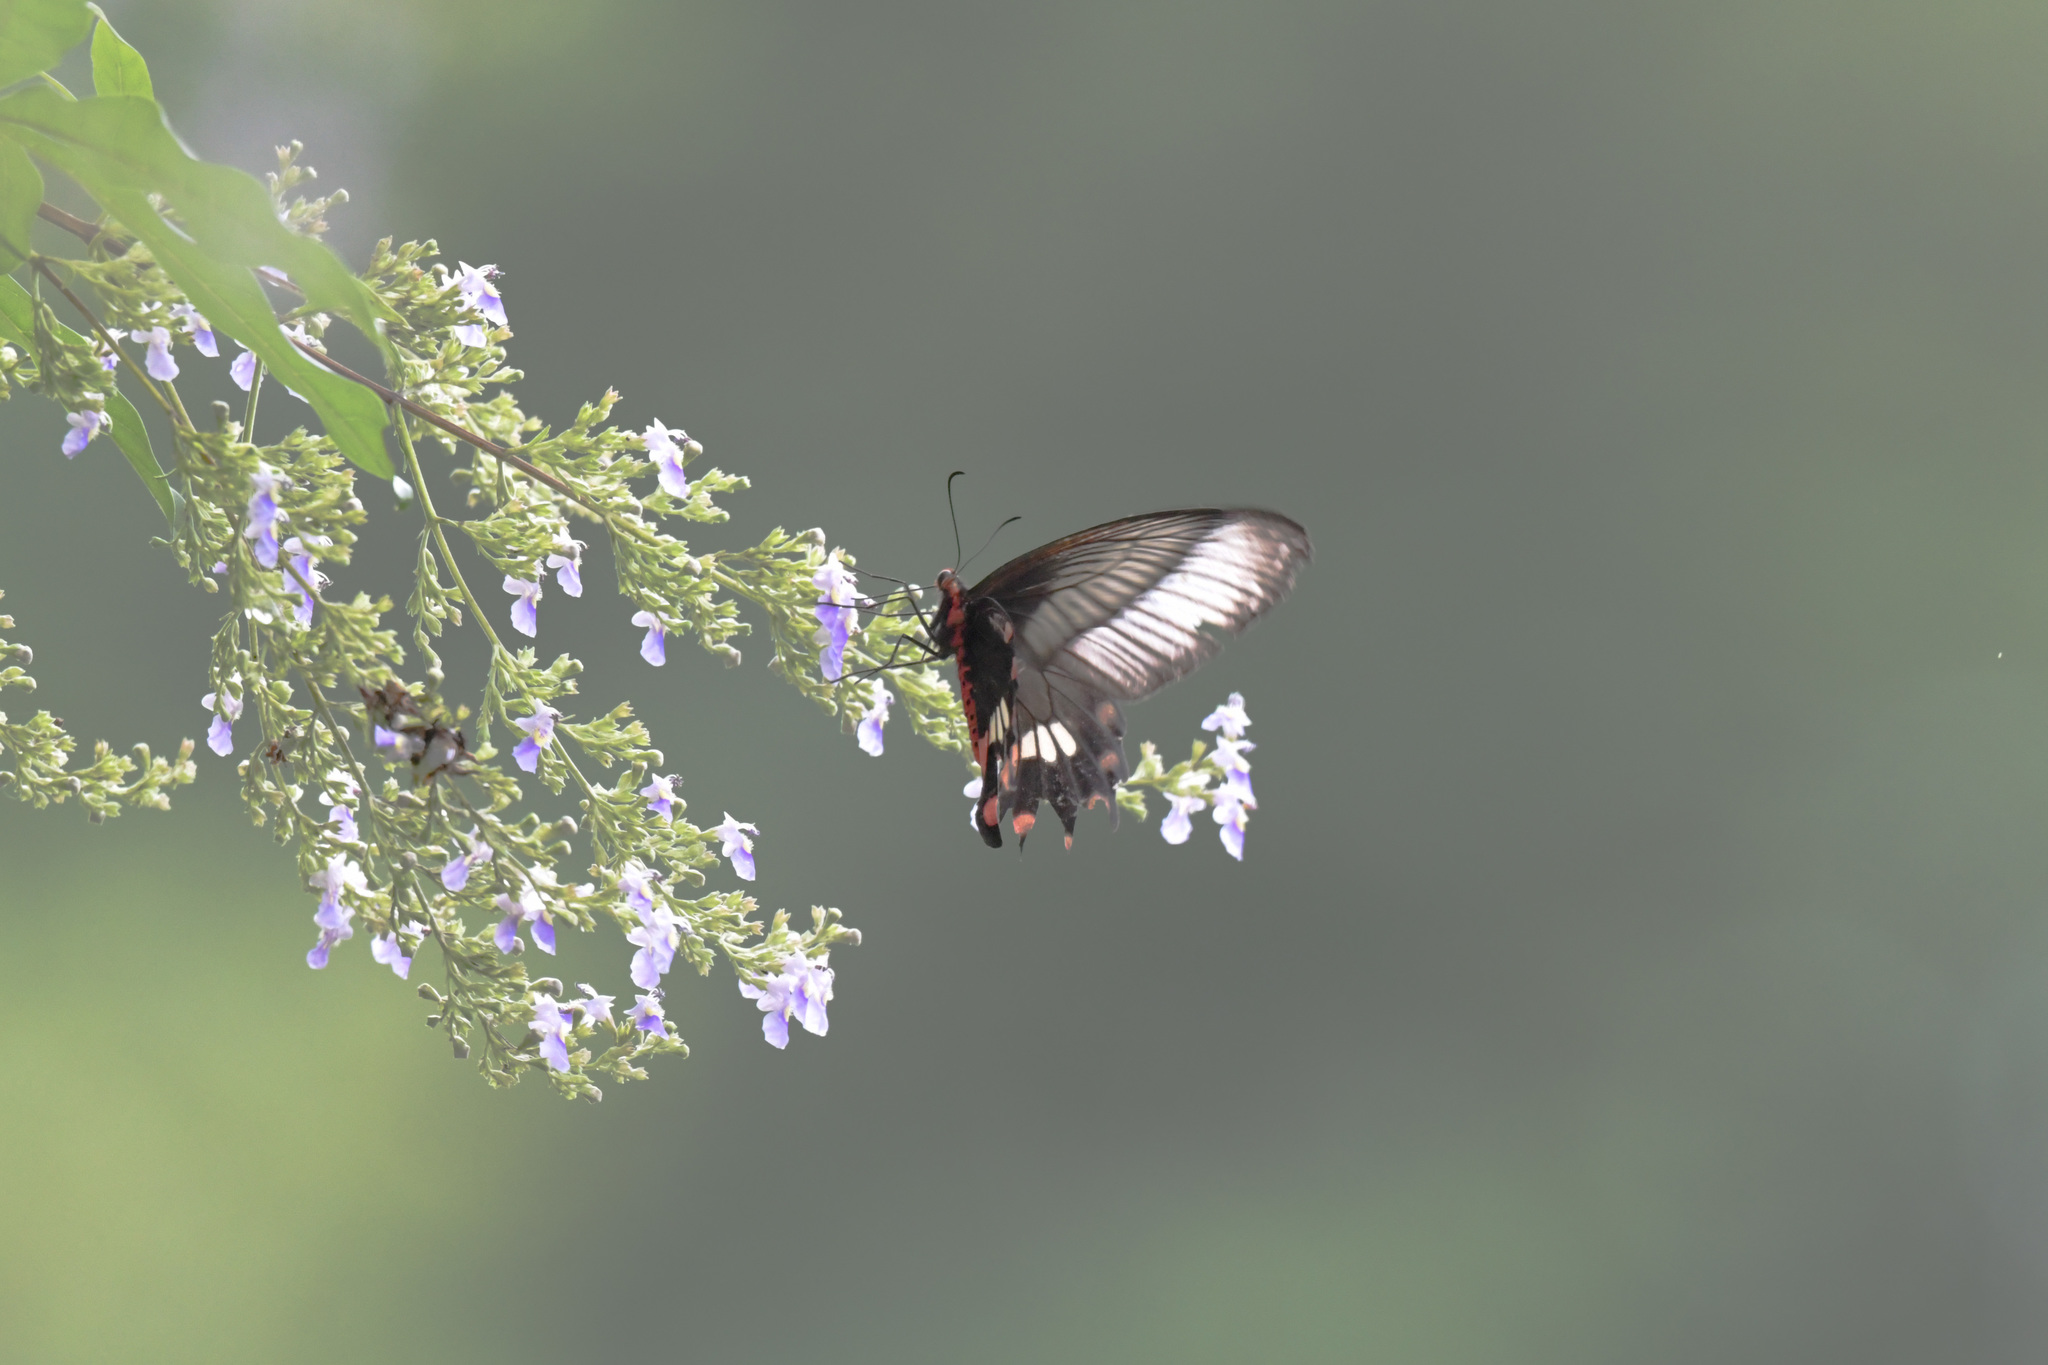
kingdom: Animalia
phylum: Arthropoda
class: Insecta
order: Lepidoptera
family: Papilionidae
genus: Pachliopta
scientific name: Pachliopta aristolochiae
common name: Common rose
